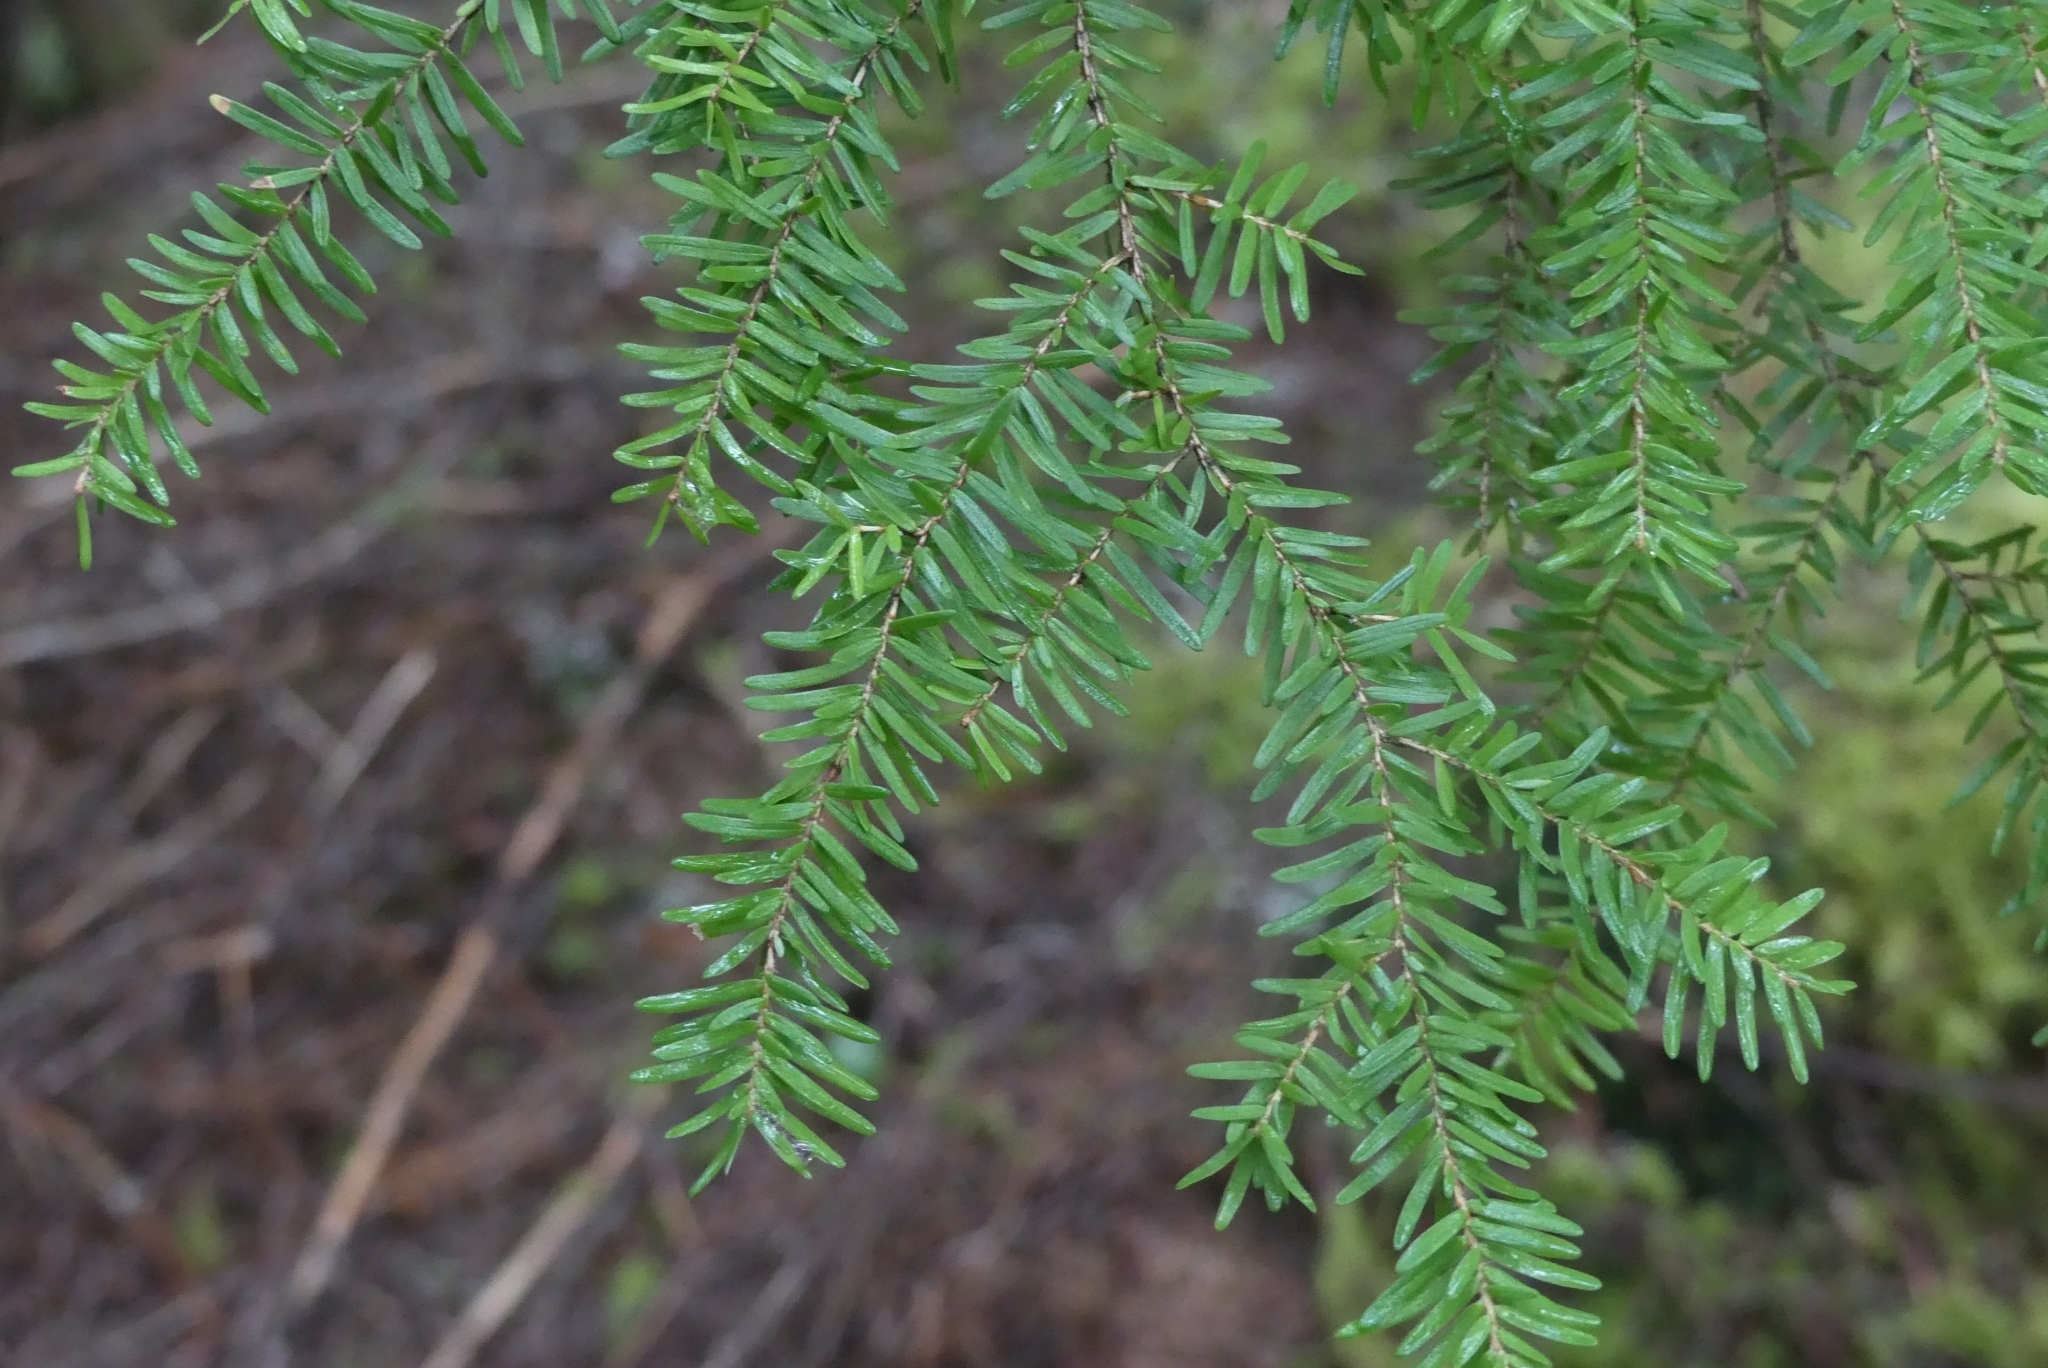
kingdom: Plantae
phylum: Tracheophyta
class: Pinopsida
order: Pinales
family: Pinaceae
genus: Tsuga
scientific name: Tsuga heterophylla
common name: Western hemlock
